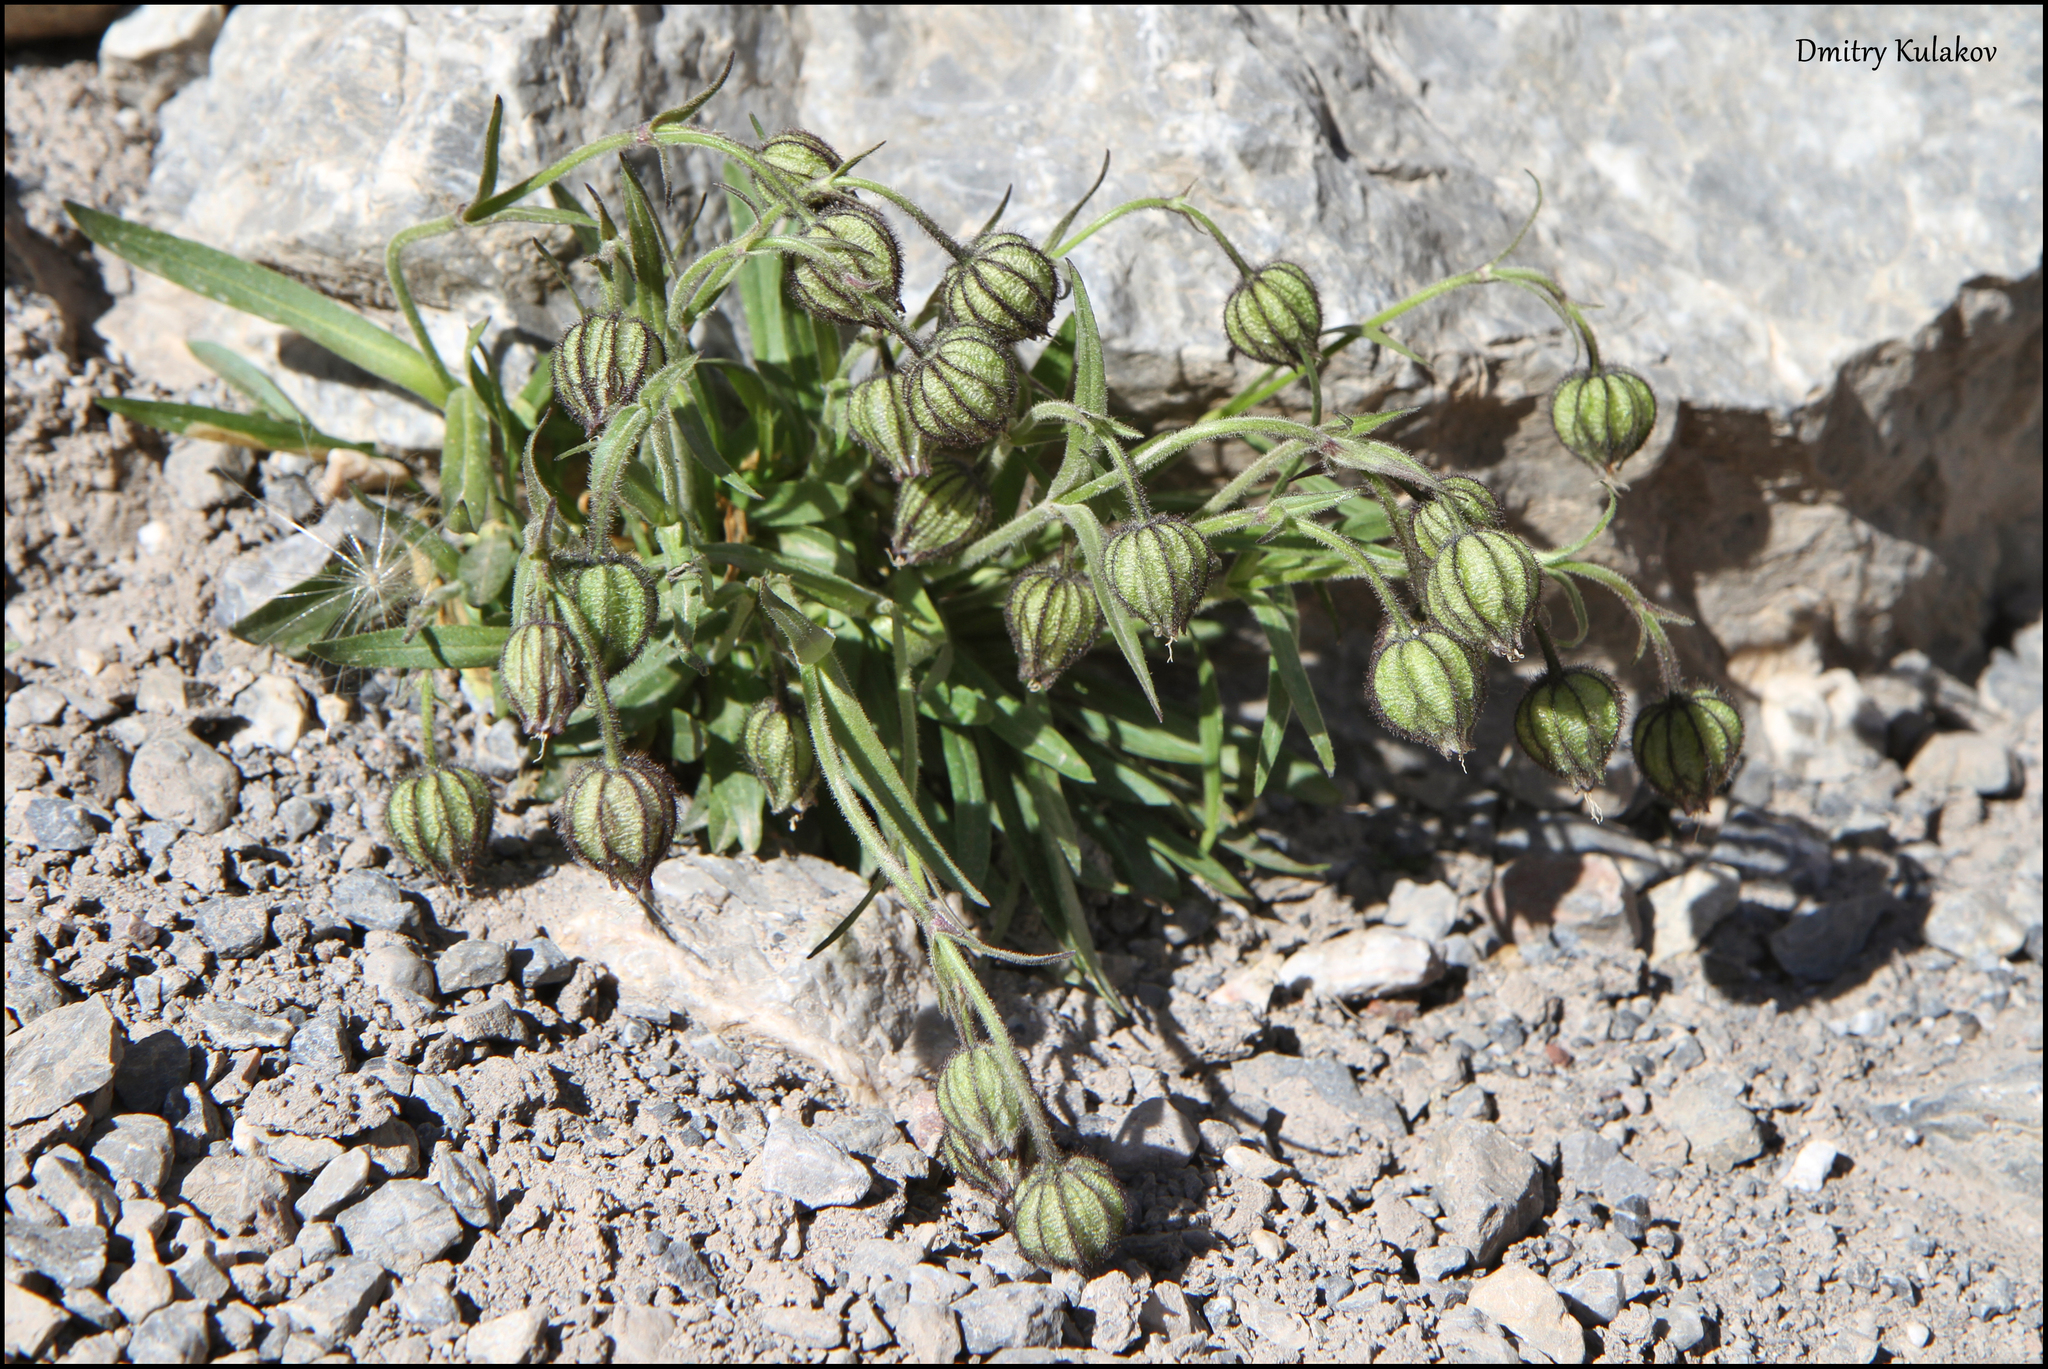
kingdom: Plantae
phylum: Tracheophyta
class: Magnoliopsida
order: Caryophyllales
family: Caryophyllaceae
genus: Silene
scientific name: Silene wahlbergella
